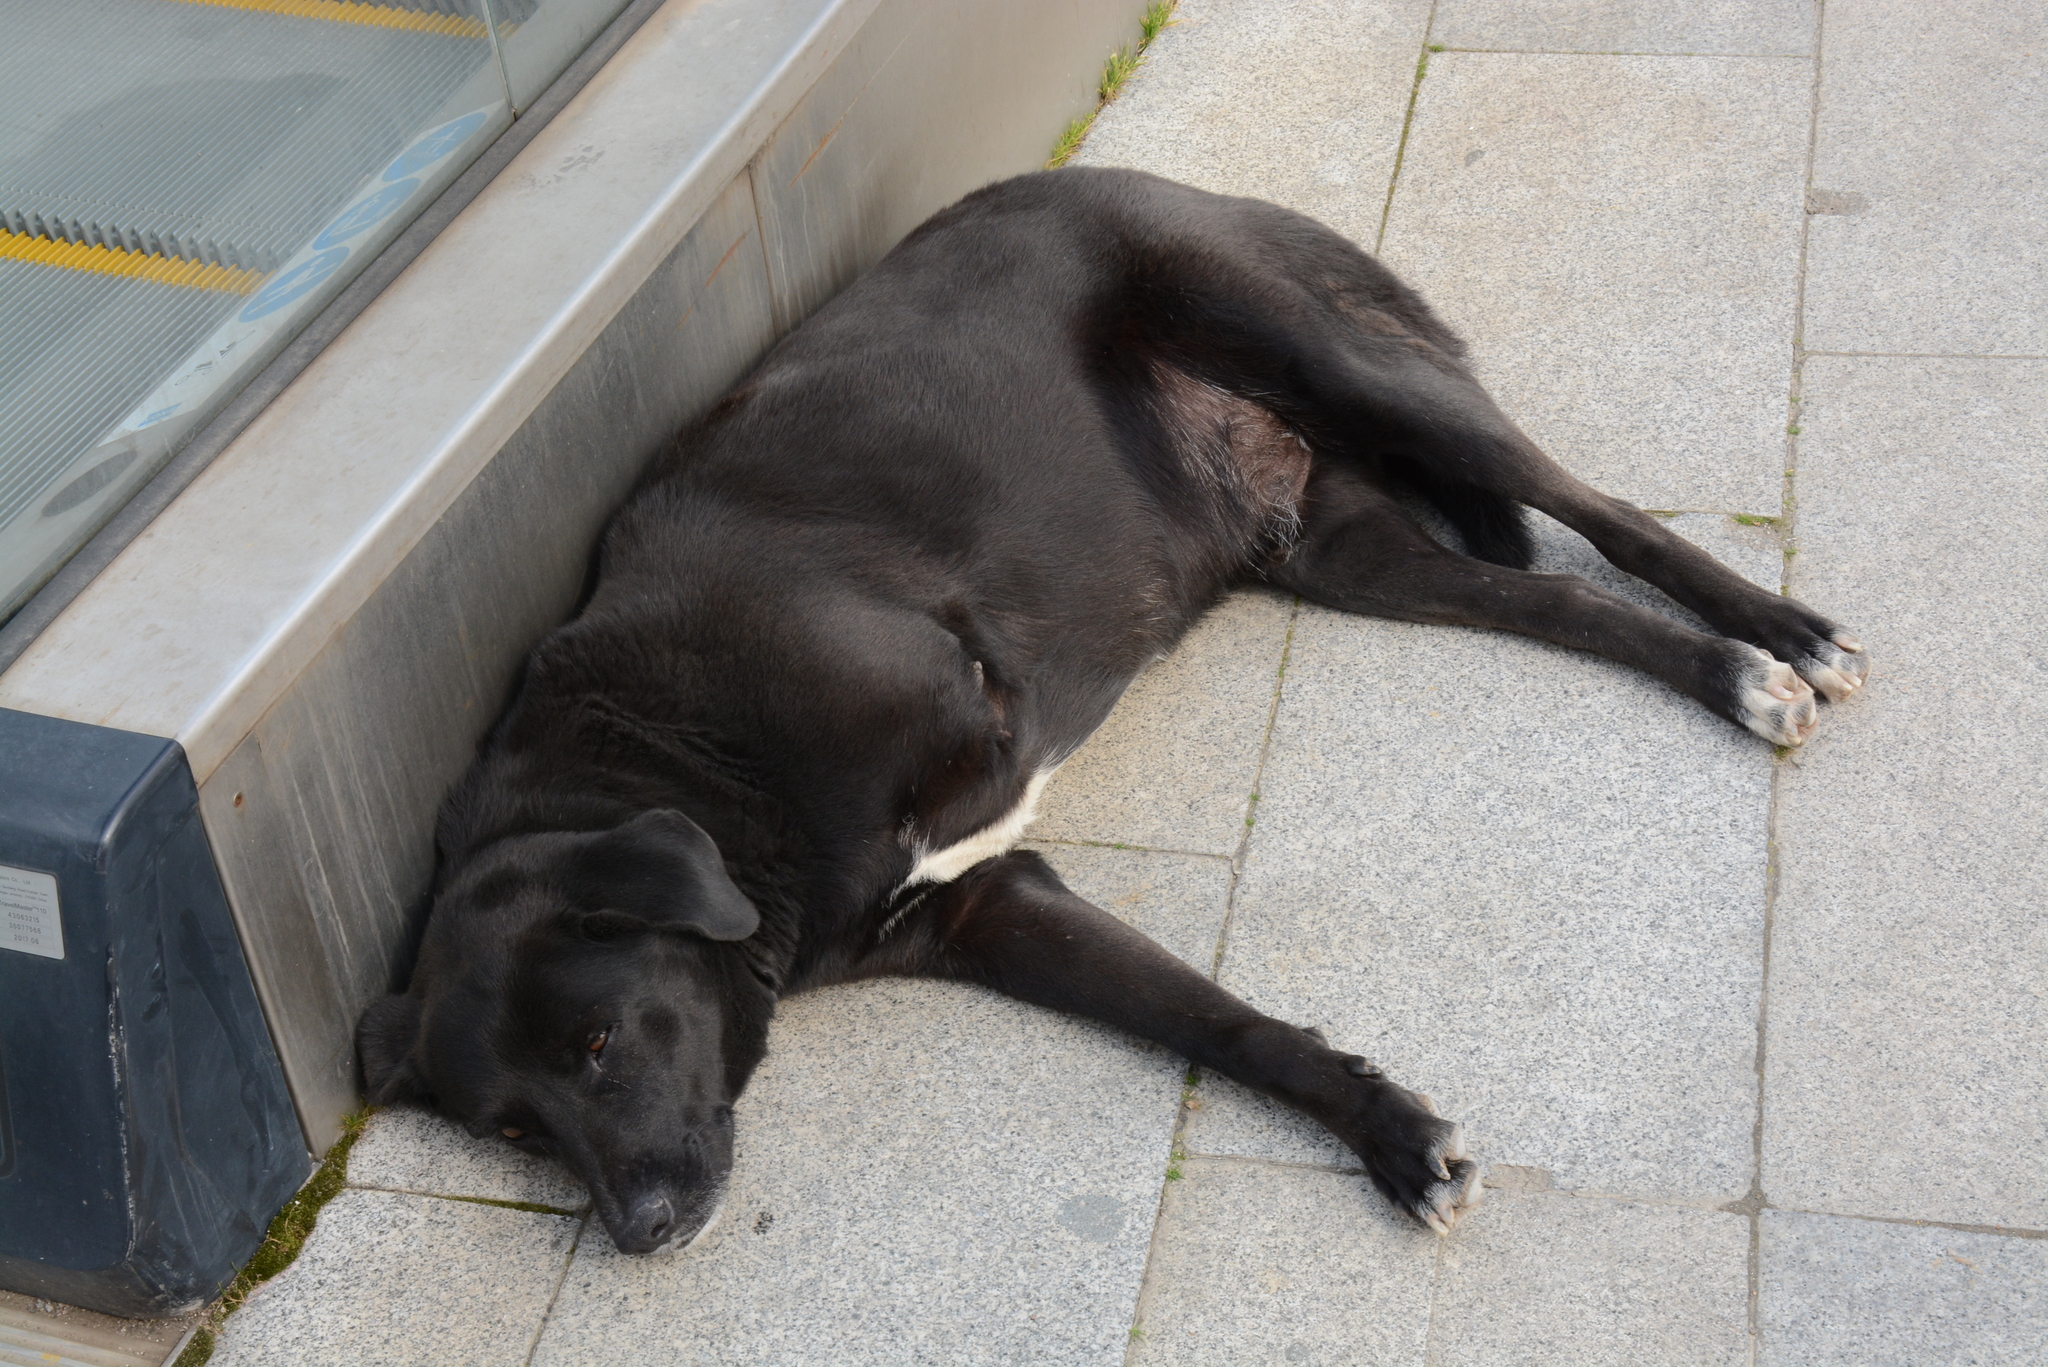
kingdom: Animalia
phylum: Chordata
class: Mammalia
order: Carnivora
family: Canidae
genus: Canis
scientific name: Canis lupus
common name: Gray wolf
